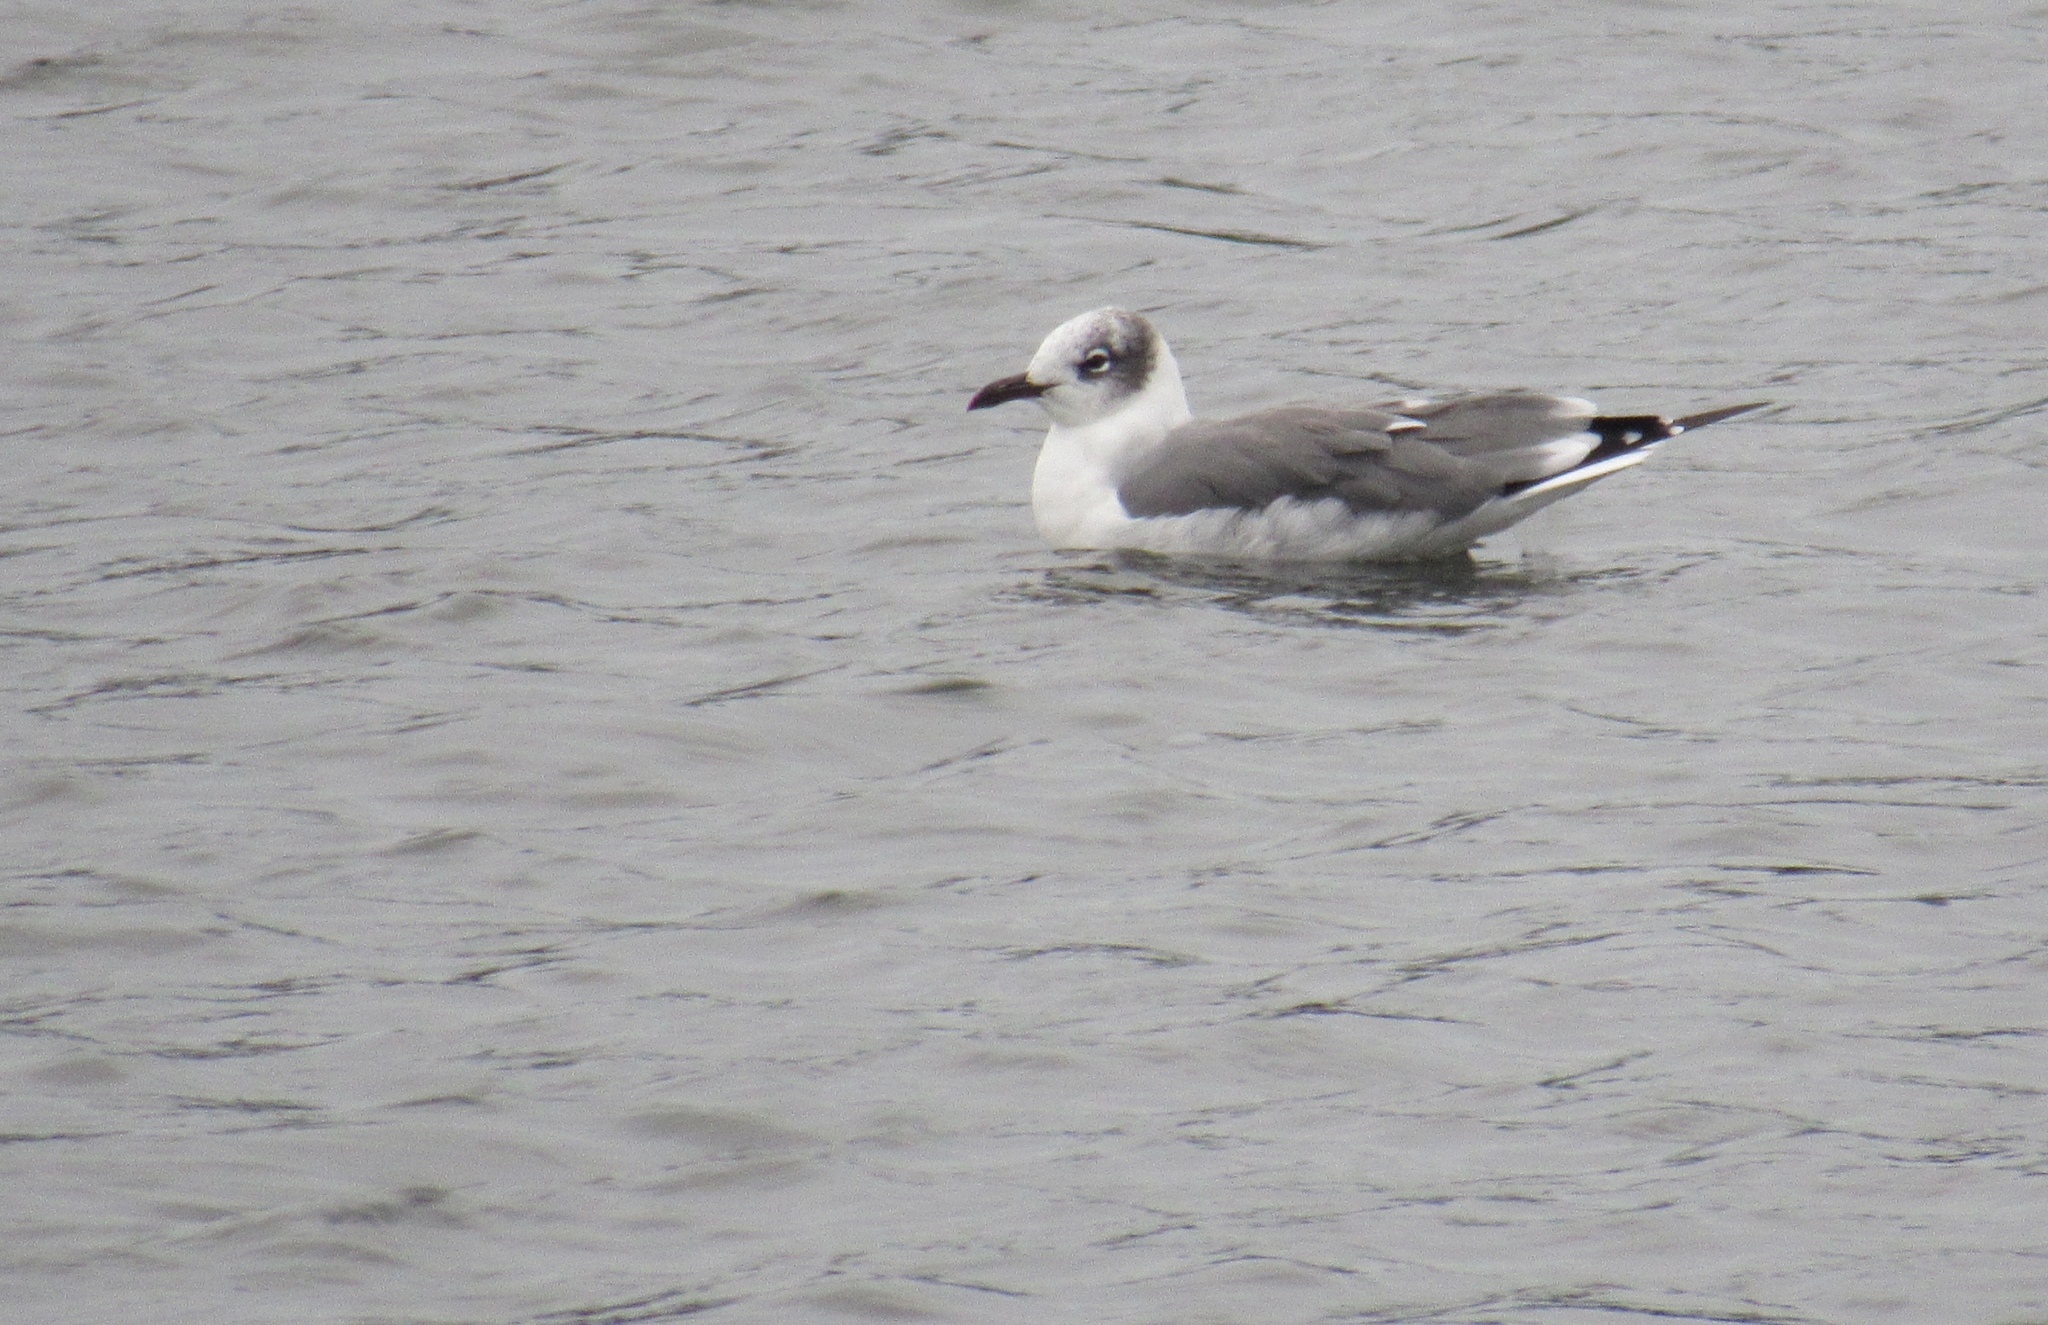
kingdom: Animalia
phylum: Chordata
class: Aves
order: Charadriiformes
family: Laridae
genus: Leucophaeus
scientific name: Leucophaeus atricilla
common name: Laughing gull
